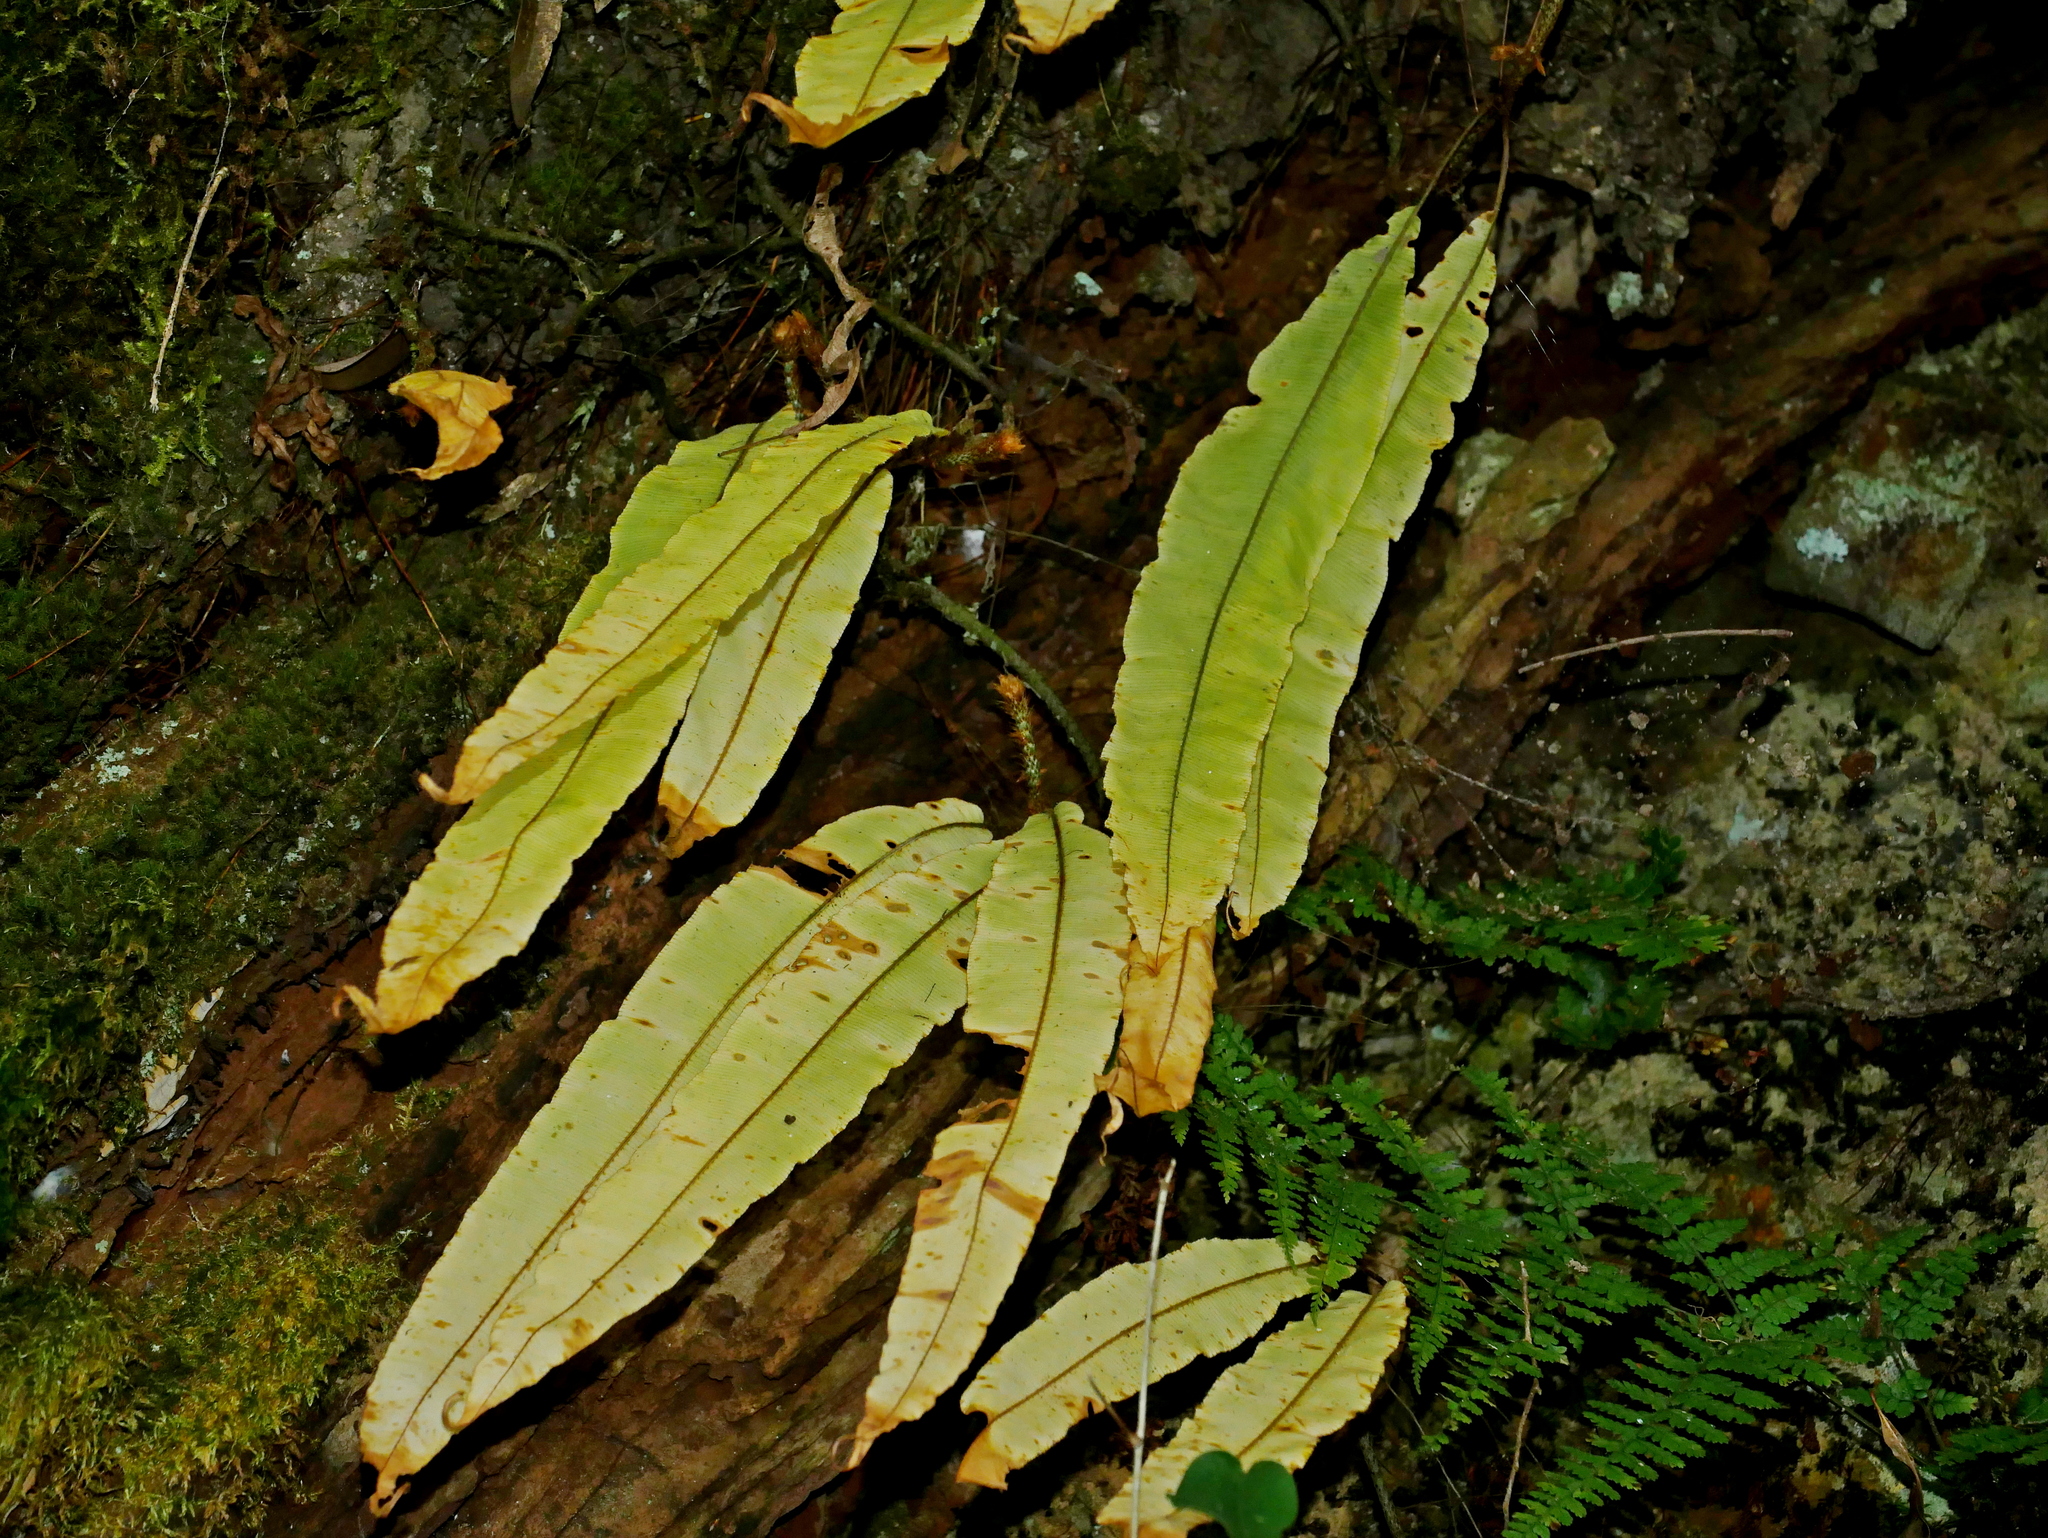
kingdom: Plantae
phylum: Tracheophyta
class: Polypodiopsida
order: Polypodiales
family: Oleandraceae
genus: Oleandra
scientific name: Oleandra wallichii
